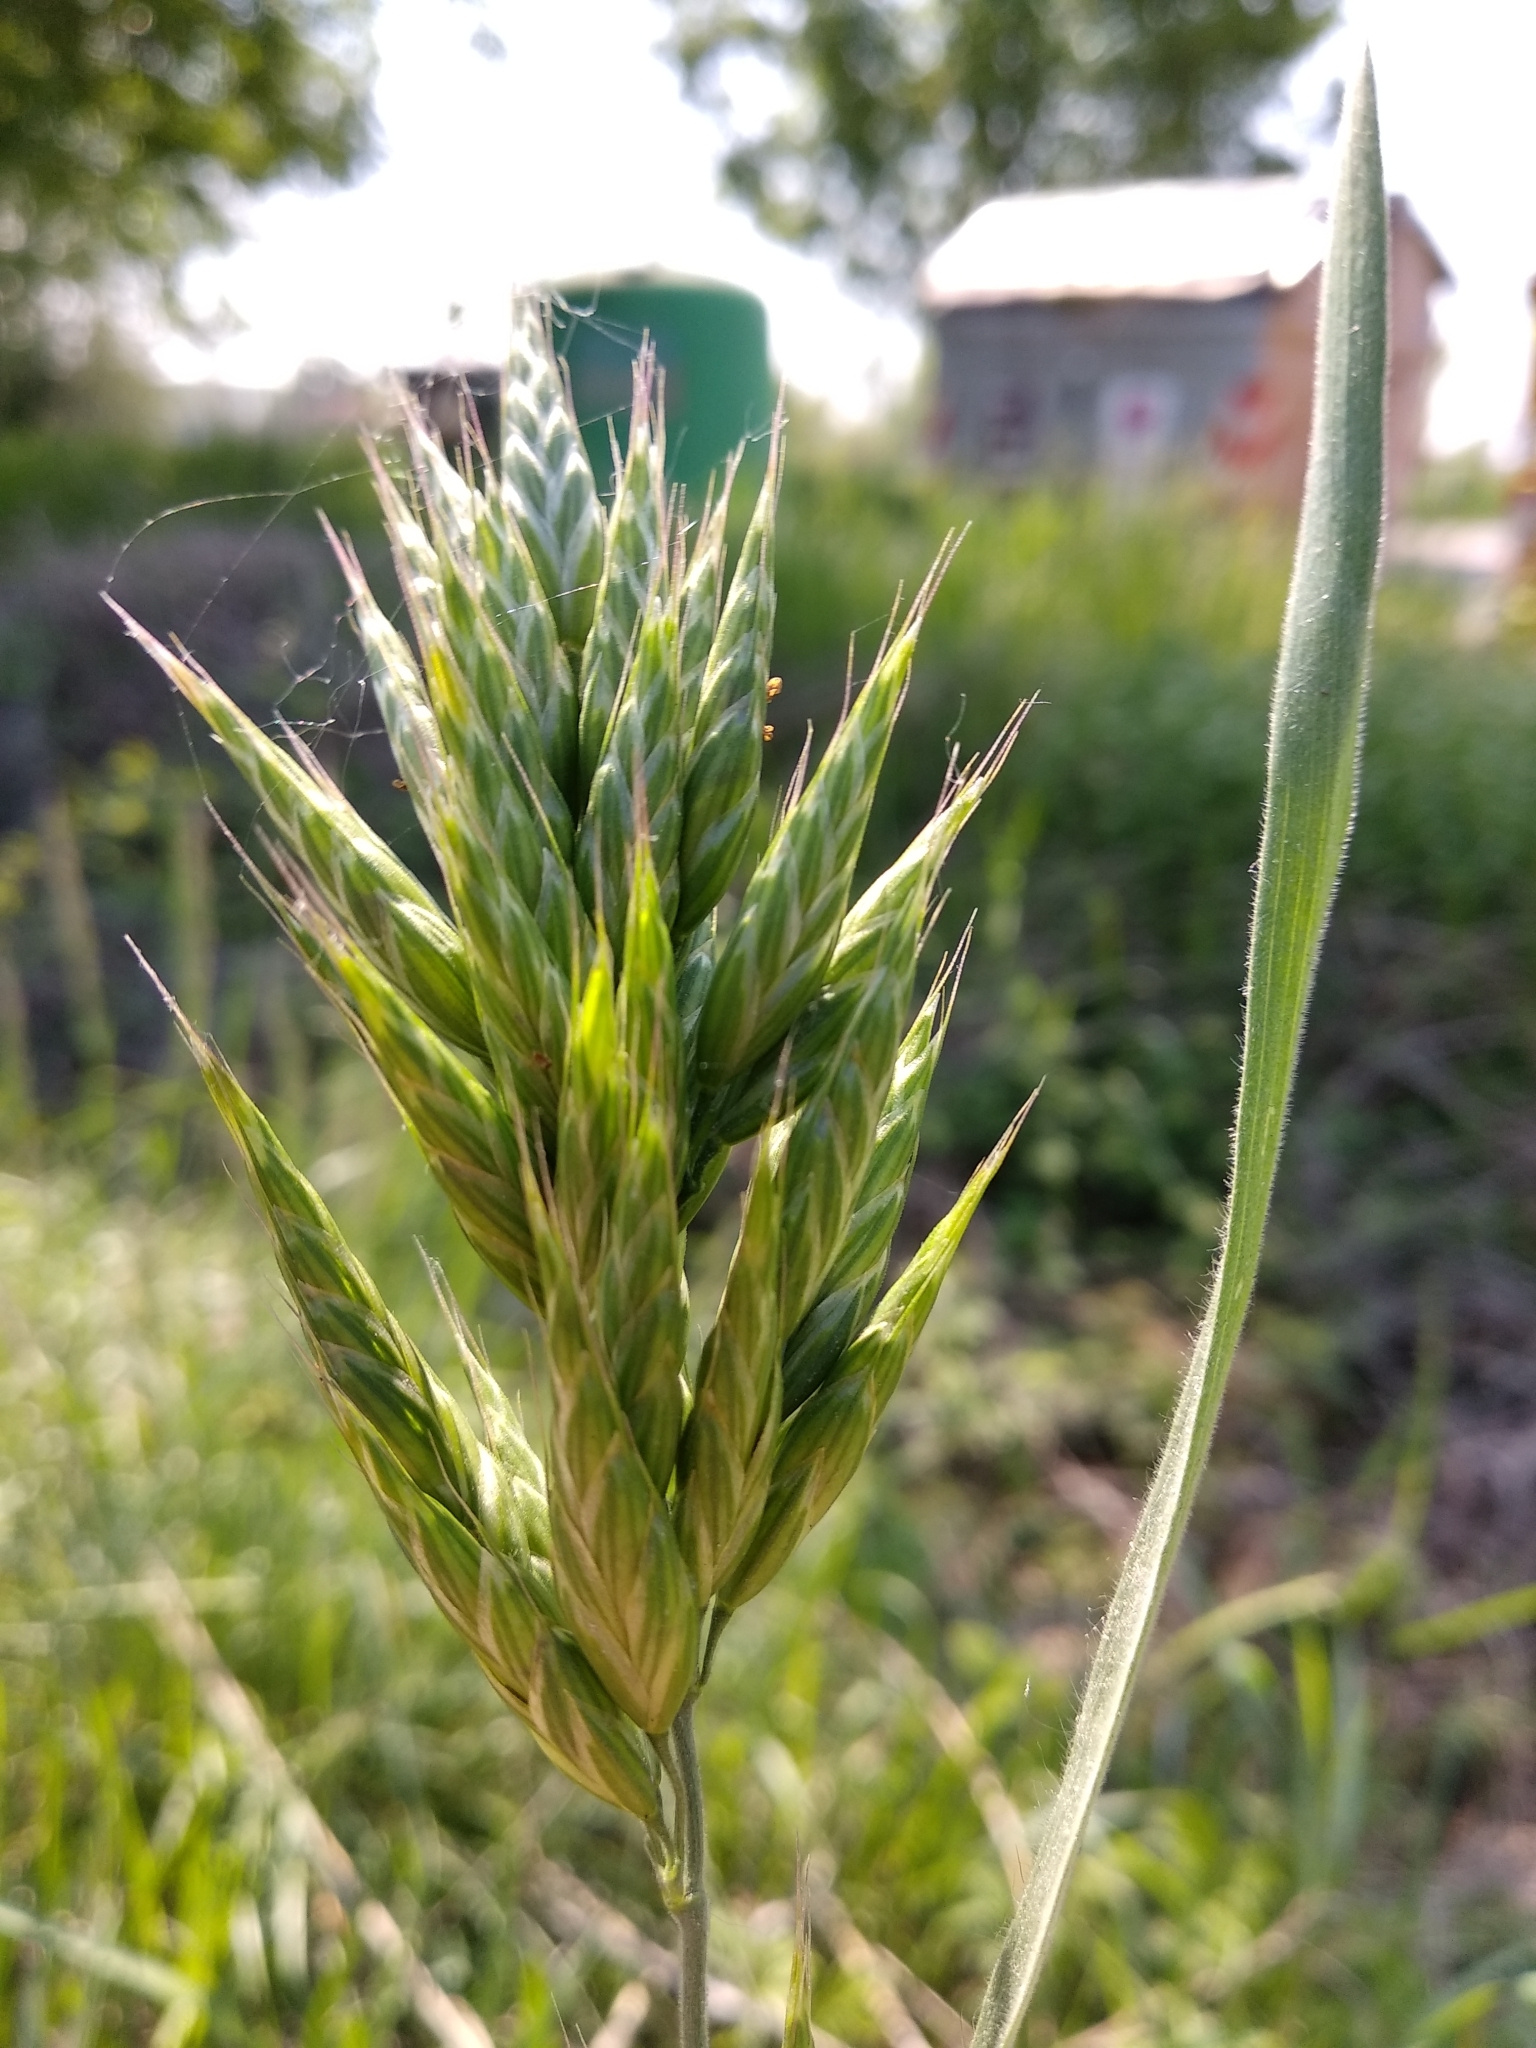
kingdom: Plantae
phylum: Tracheophyta
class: Liliopsida
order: Poales
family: Poaceae
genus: Bromus
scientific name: Bromus hordeaceus
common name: Soft brome
